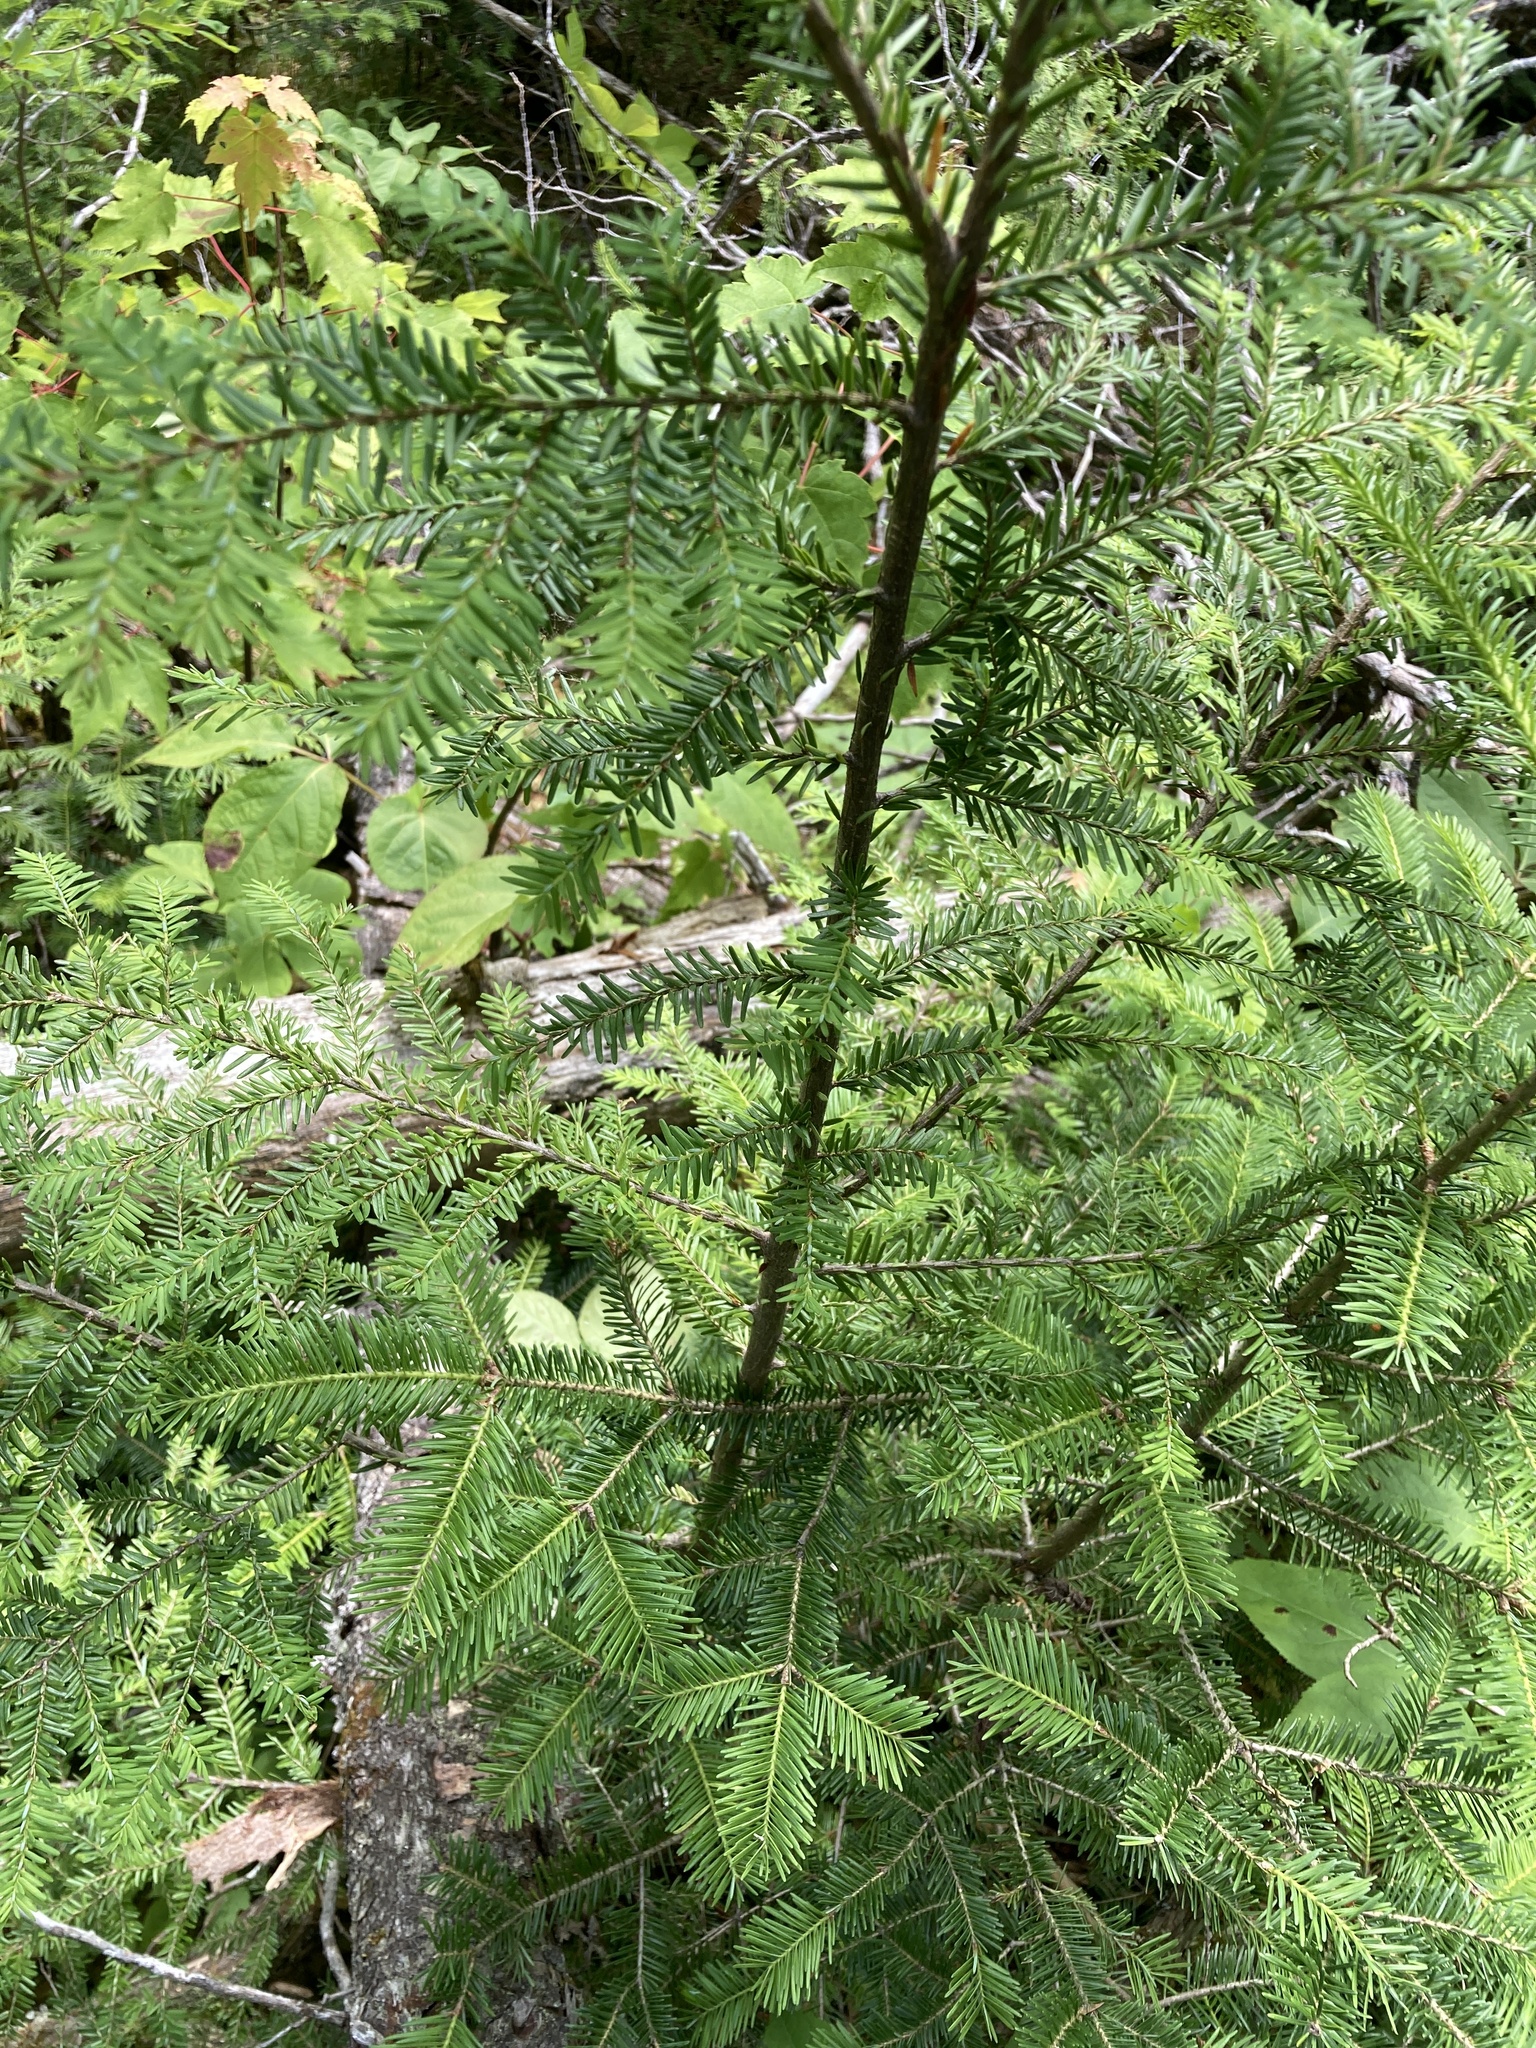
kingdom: Plantae
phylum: Tracheophyta
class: Pinopsida
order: Pinales
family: Pinaceae
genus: Tsuga
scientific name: Tsuga canadensis
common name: Eastern hemlock
